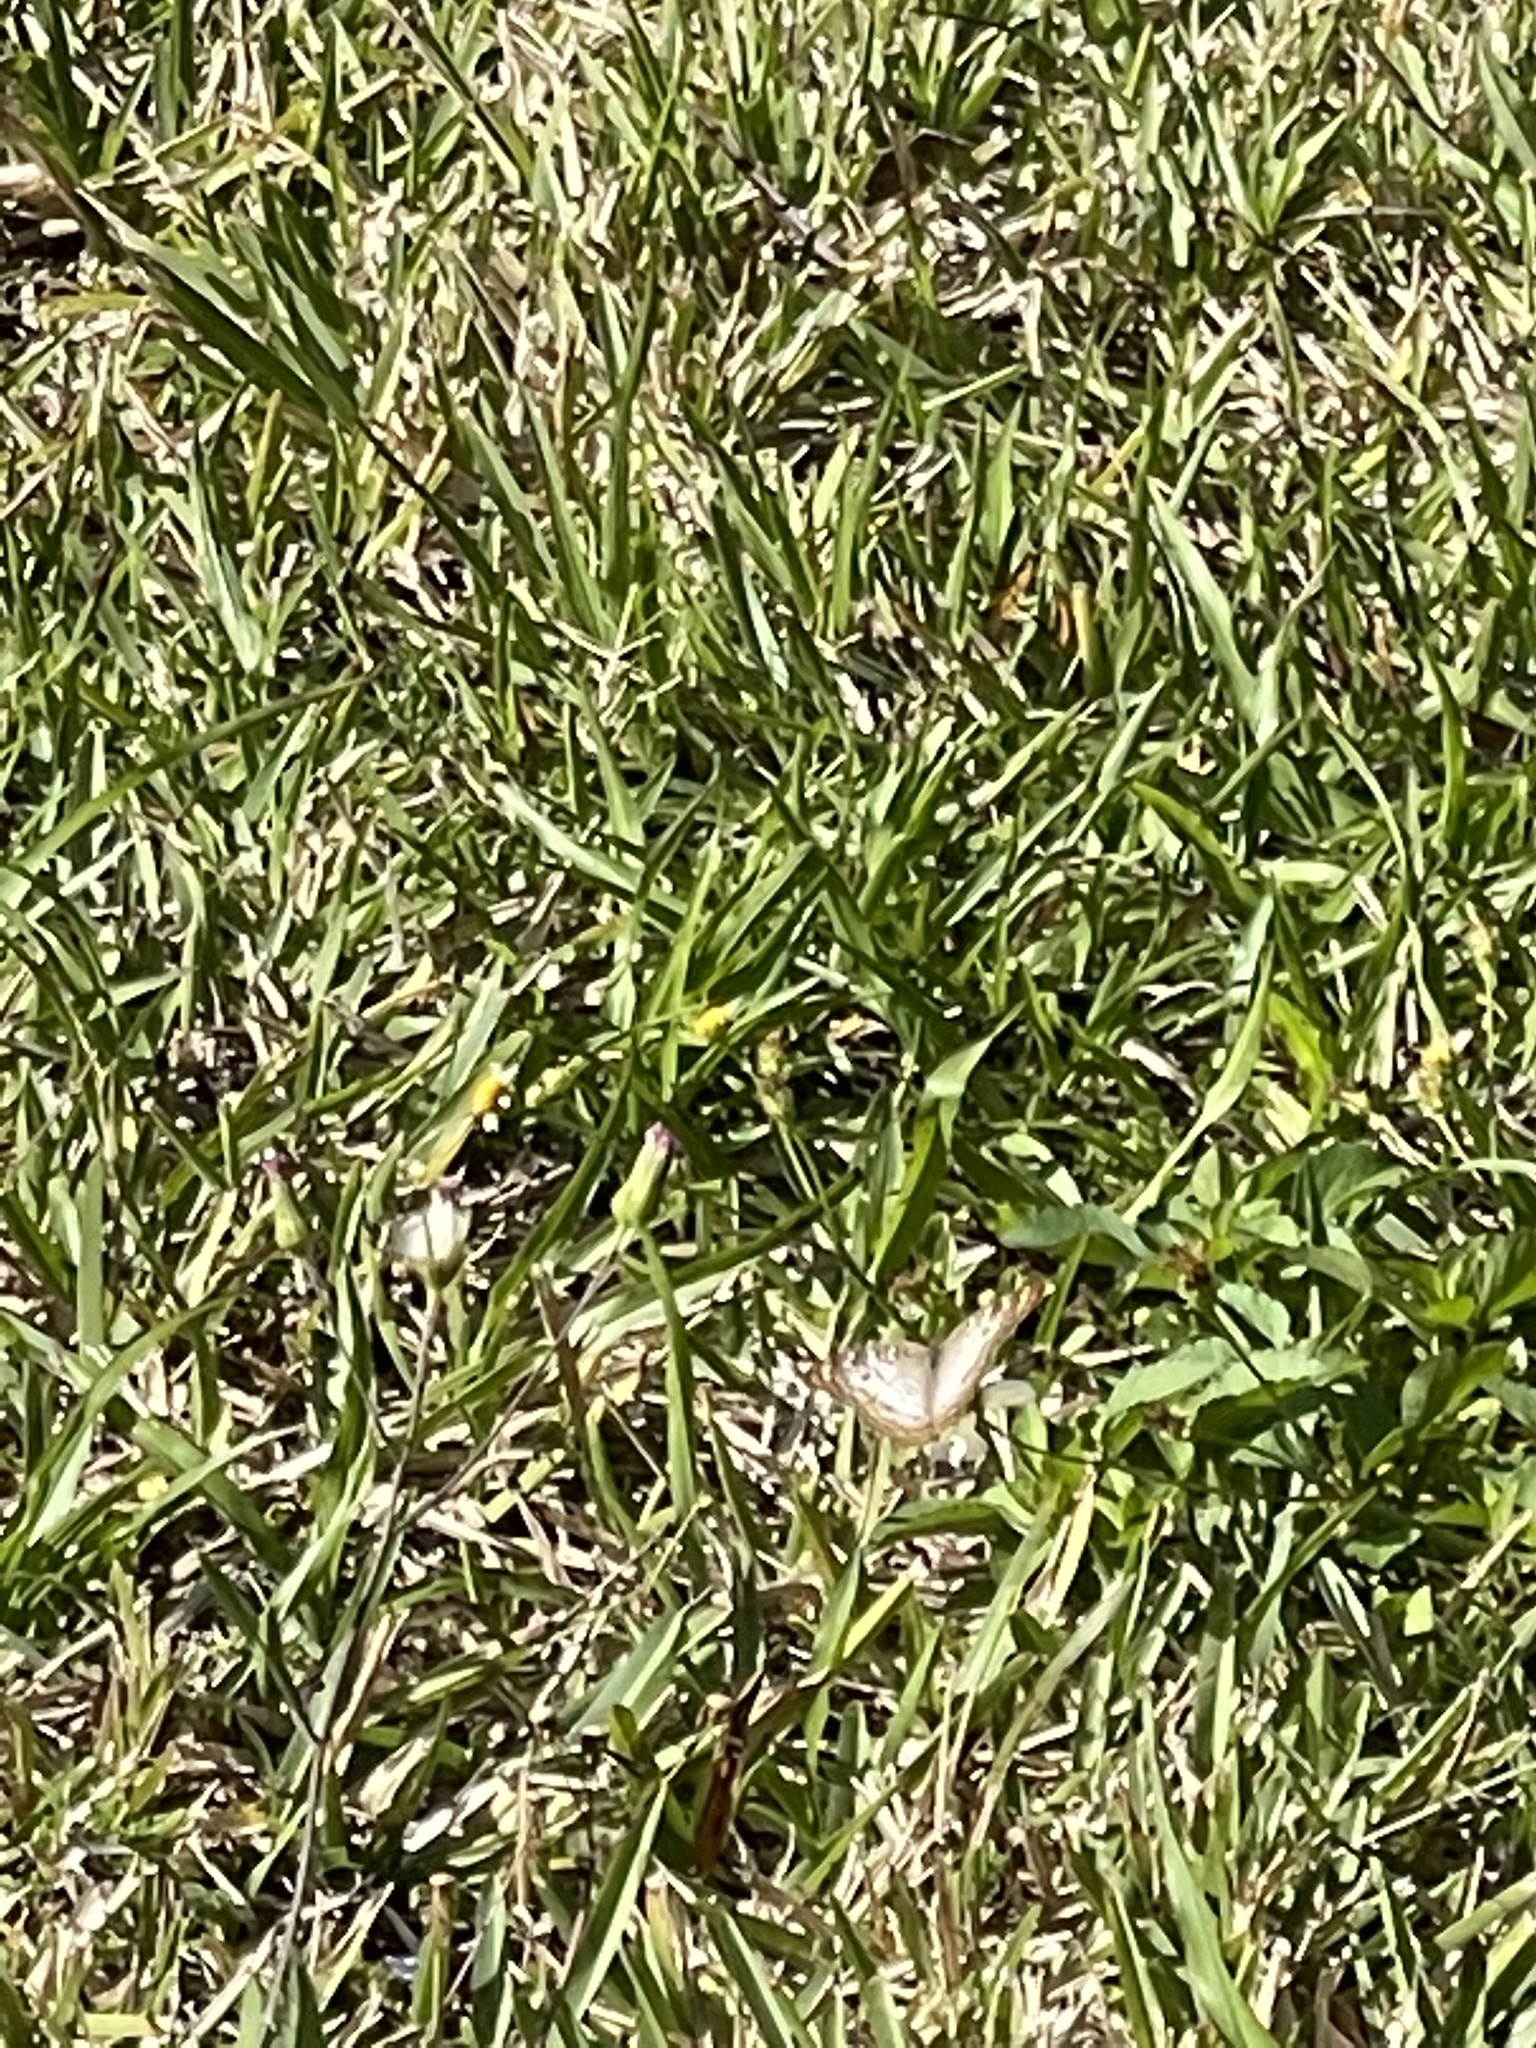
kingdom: Animalia
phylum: Arthropoda
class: Insecta
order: Lepidoptera
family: Nymphalidae
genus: Anartia
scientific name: Anartia jatrophae
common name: White peacock
